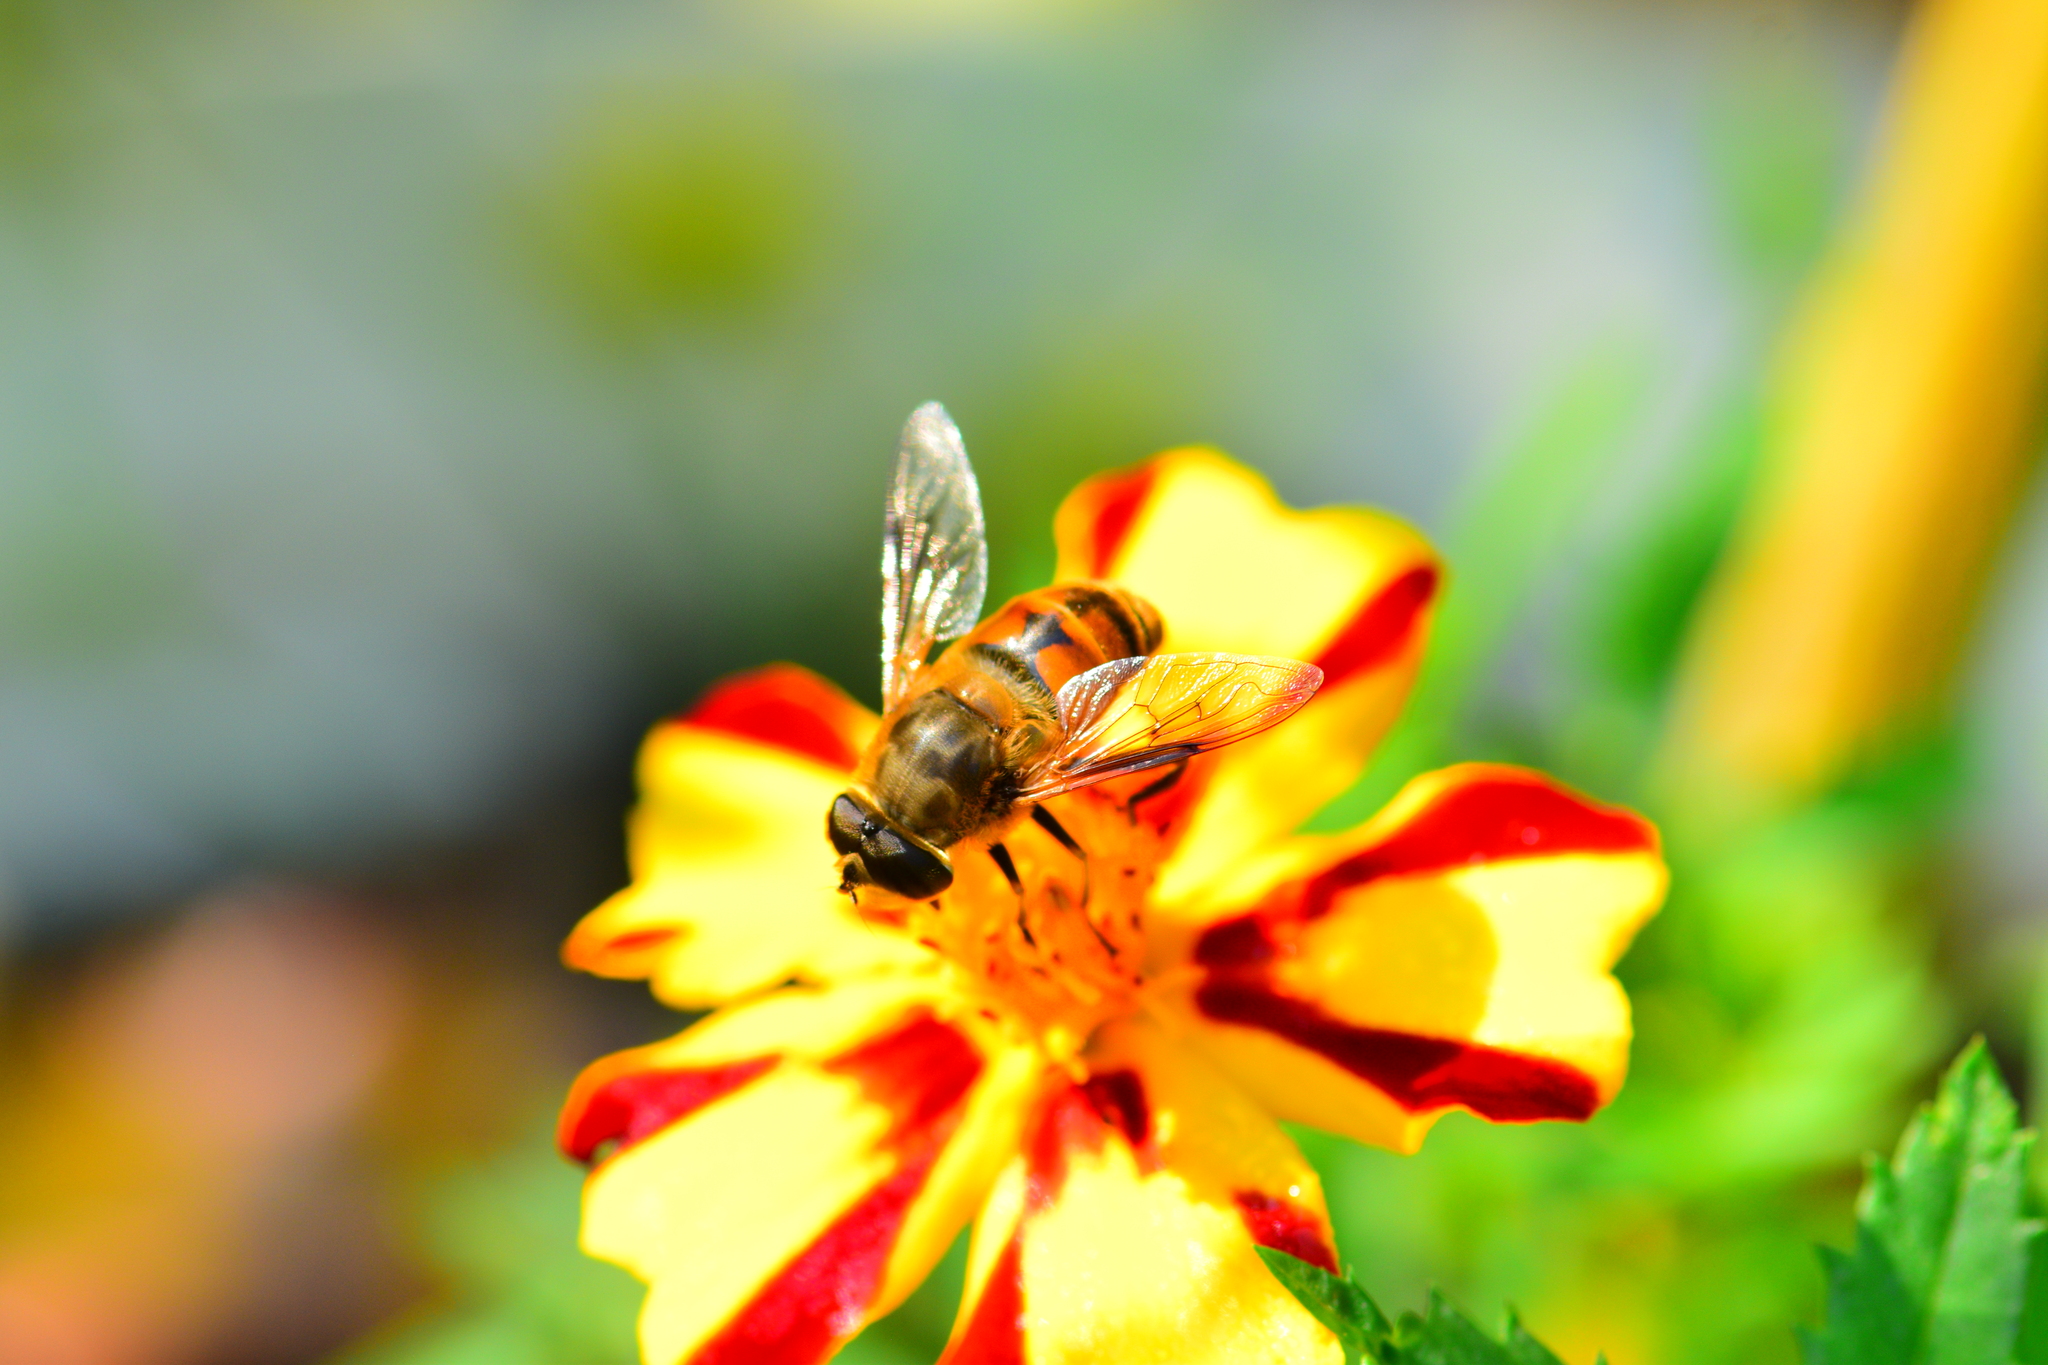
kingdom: Animalia
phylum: Arthropoda
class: Insecta
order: Diptera
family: Syrphidae
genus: Eristalis
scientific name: Eristalis tenax
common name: Drone fly
